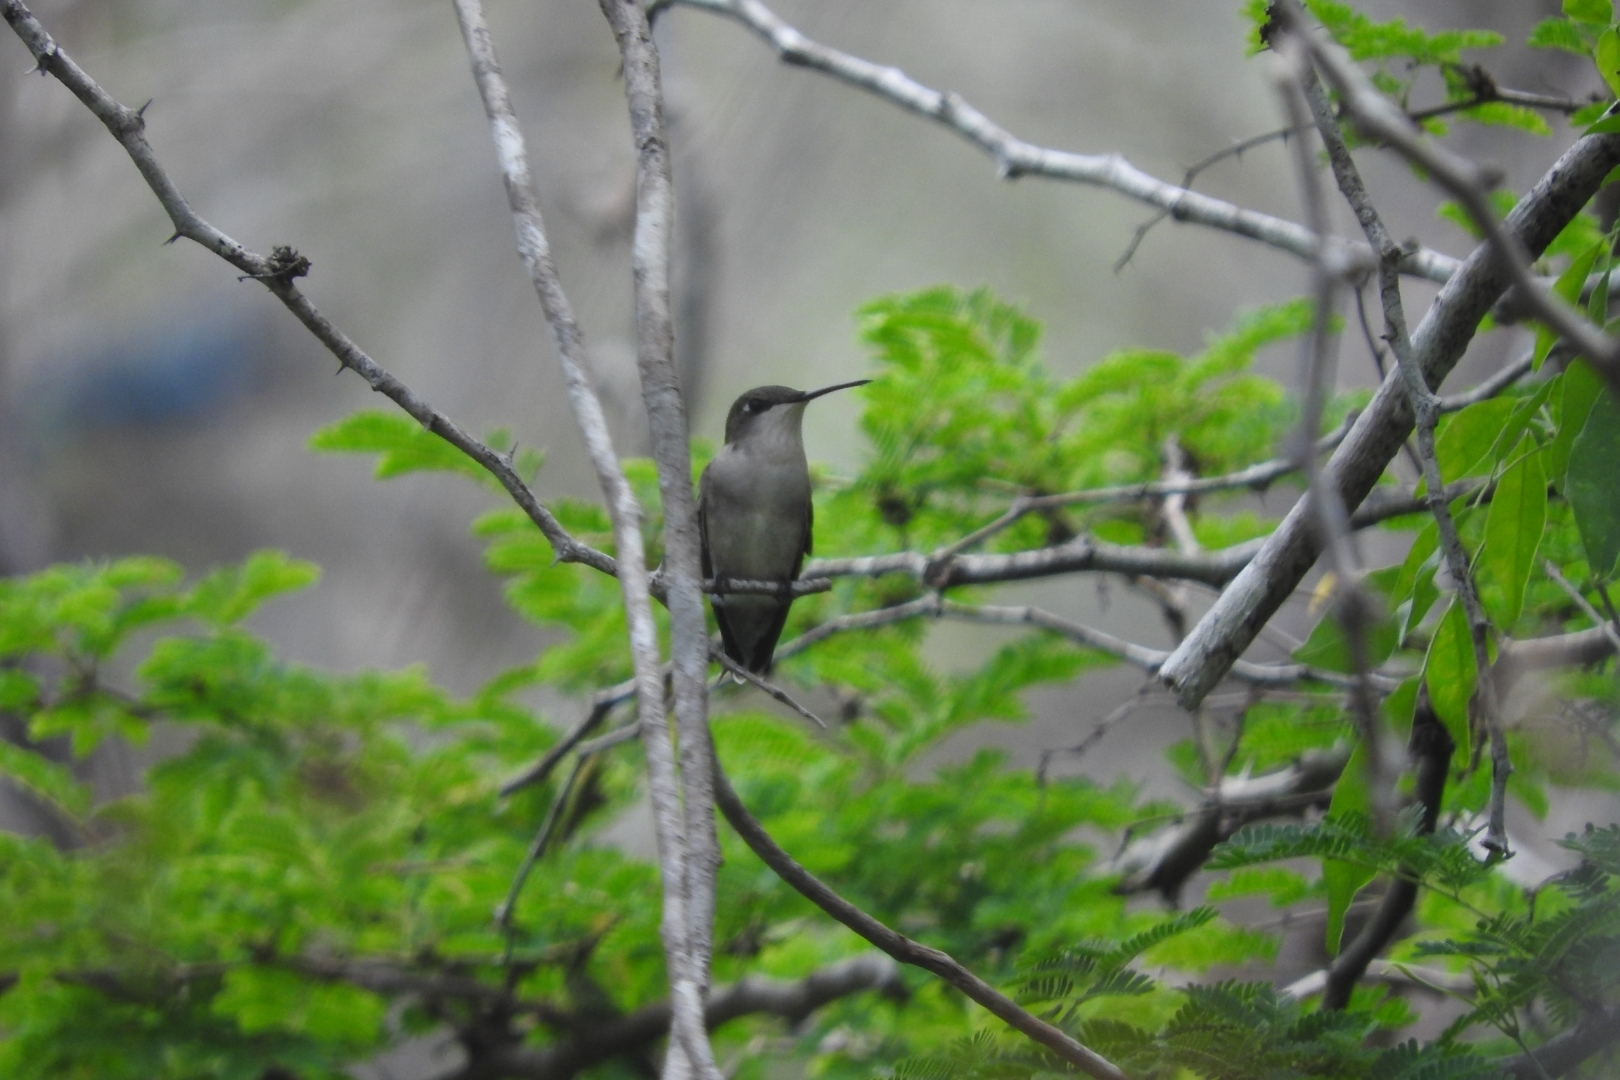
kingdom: Animalia
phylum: Chordata
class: Aves
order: Apodiformes
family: Trochilidae
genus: Archilochus
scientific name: Archilochus colubris
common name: Ruby-throated hummingbird
